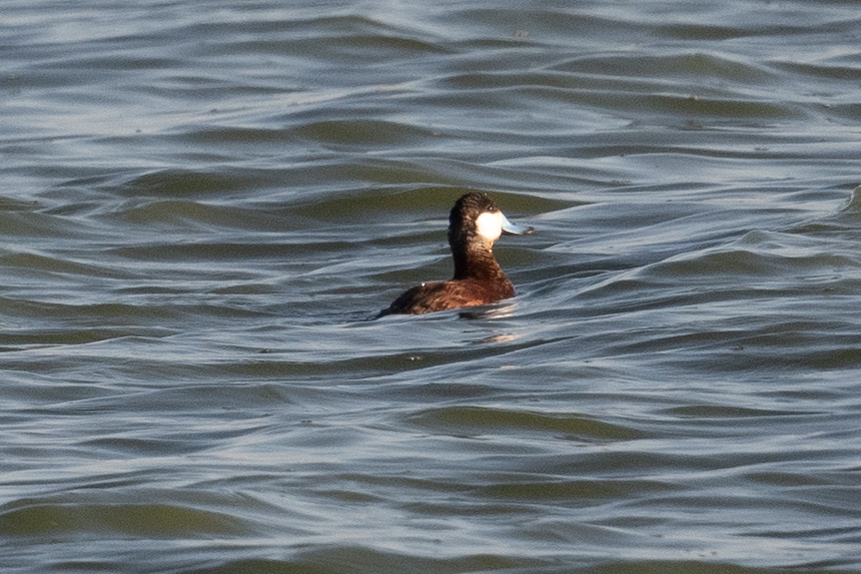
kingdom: Animalia
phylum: Chordata
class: Aves
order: Anseriformes
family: Anatidae
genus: Oxyura
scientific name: Oxyura jamaicensis
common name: Ruddy duck
